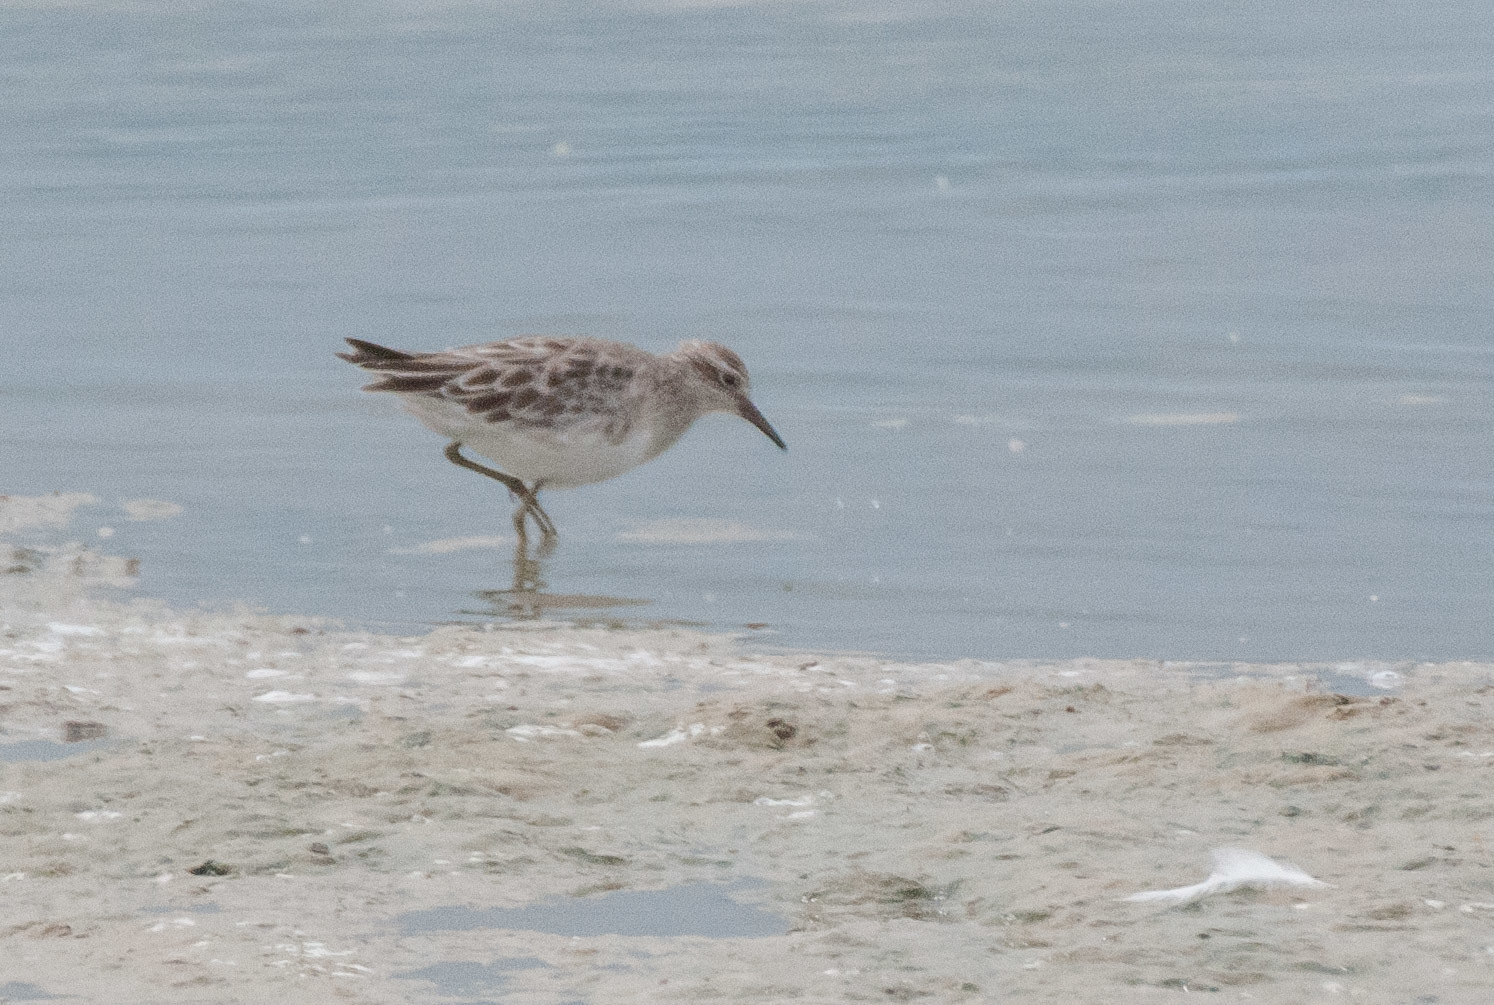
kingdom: Animalia
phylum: Chordata
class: Aves
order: Charadriiformes
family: Scolopacidae
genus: Calidris
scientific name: Calidris acuminata
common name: Sharp-tailed sandpiper
